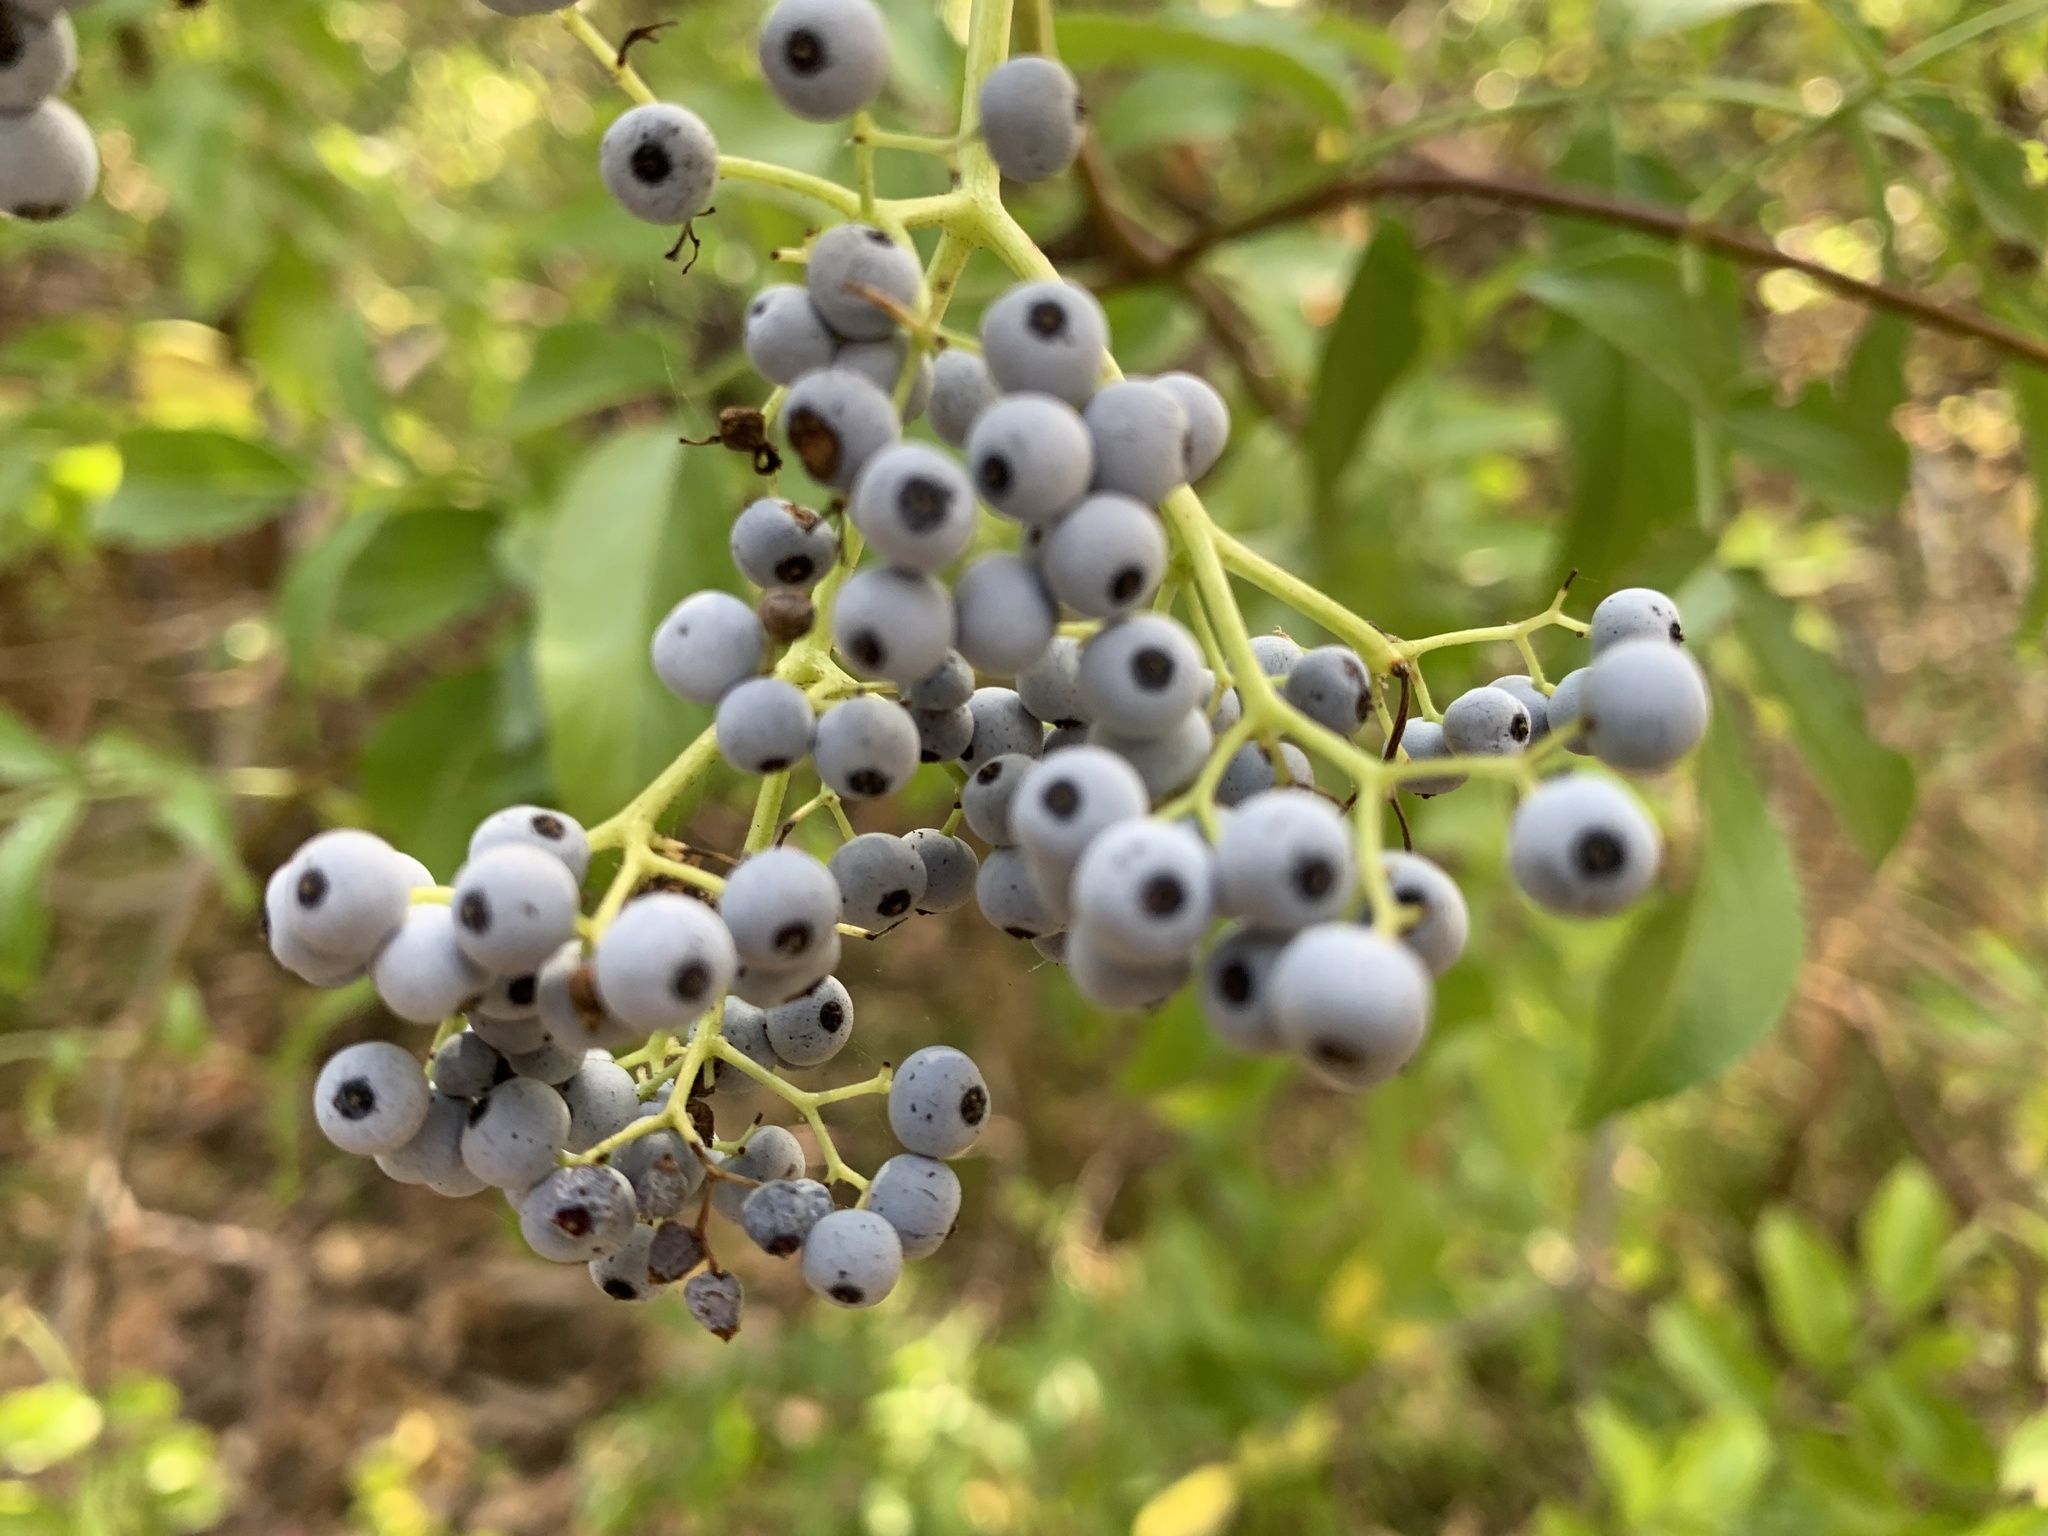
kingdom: Plantae
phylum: Tracheophyta
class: Magnoliopsida
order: Dipsacales
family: Viburnaceae
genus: Sambucus
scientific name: Sambucus cerulea
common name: Blue elder
